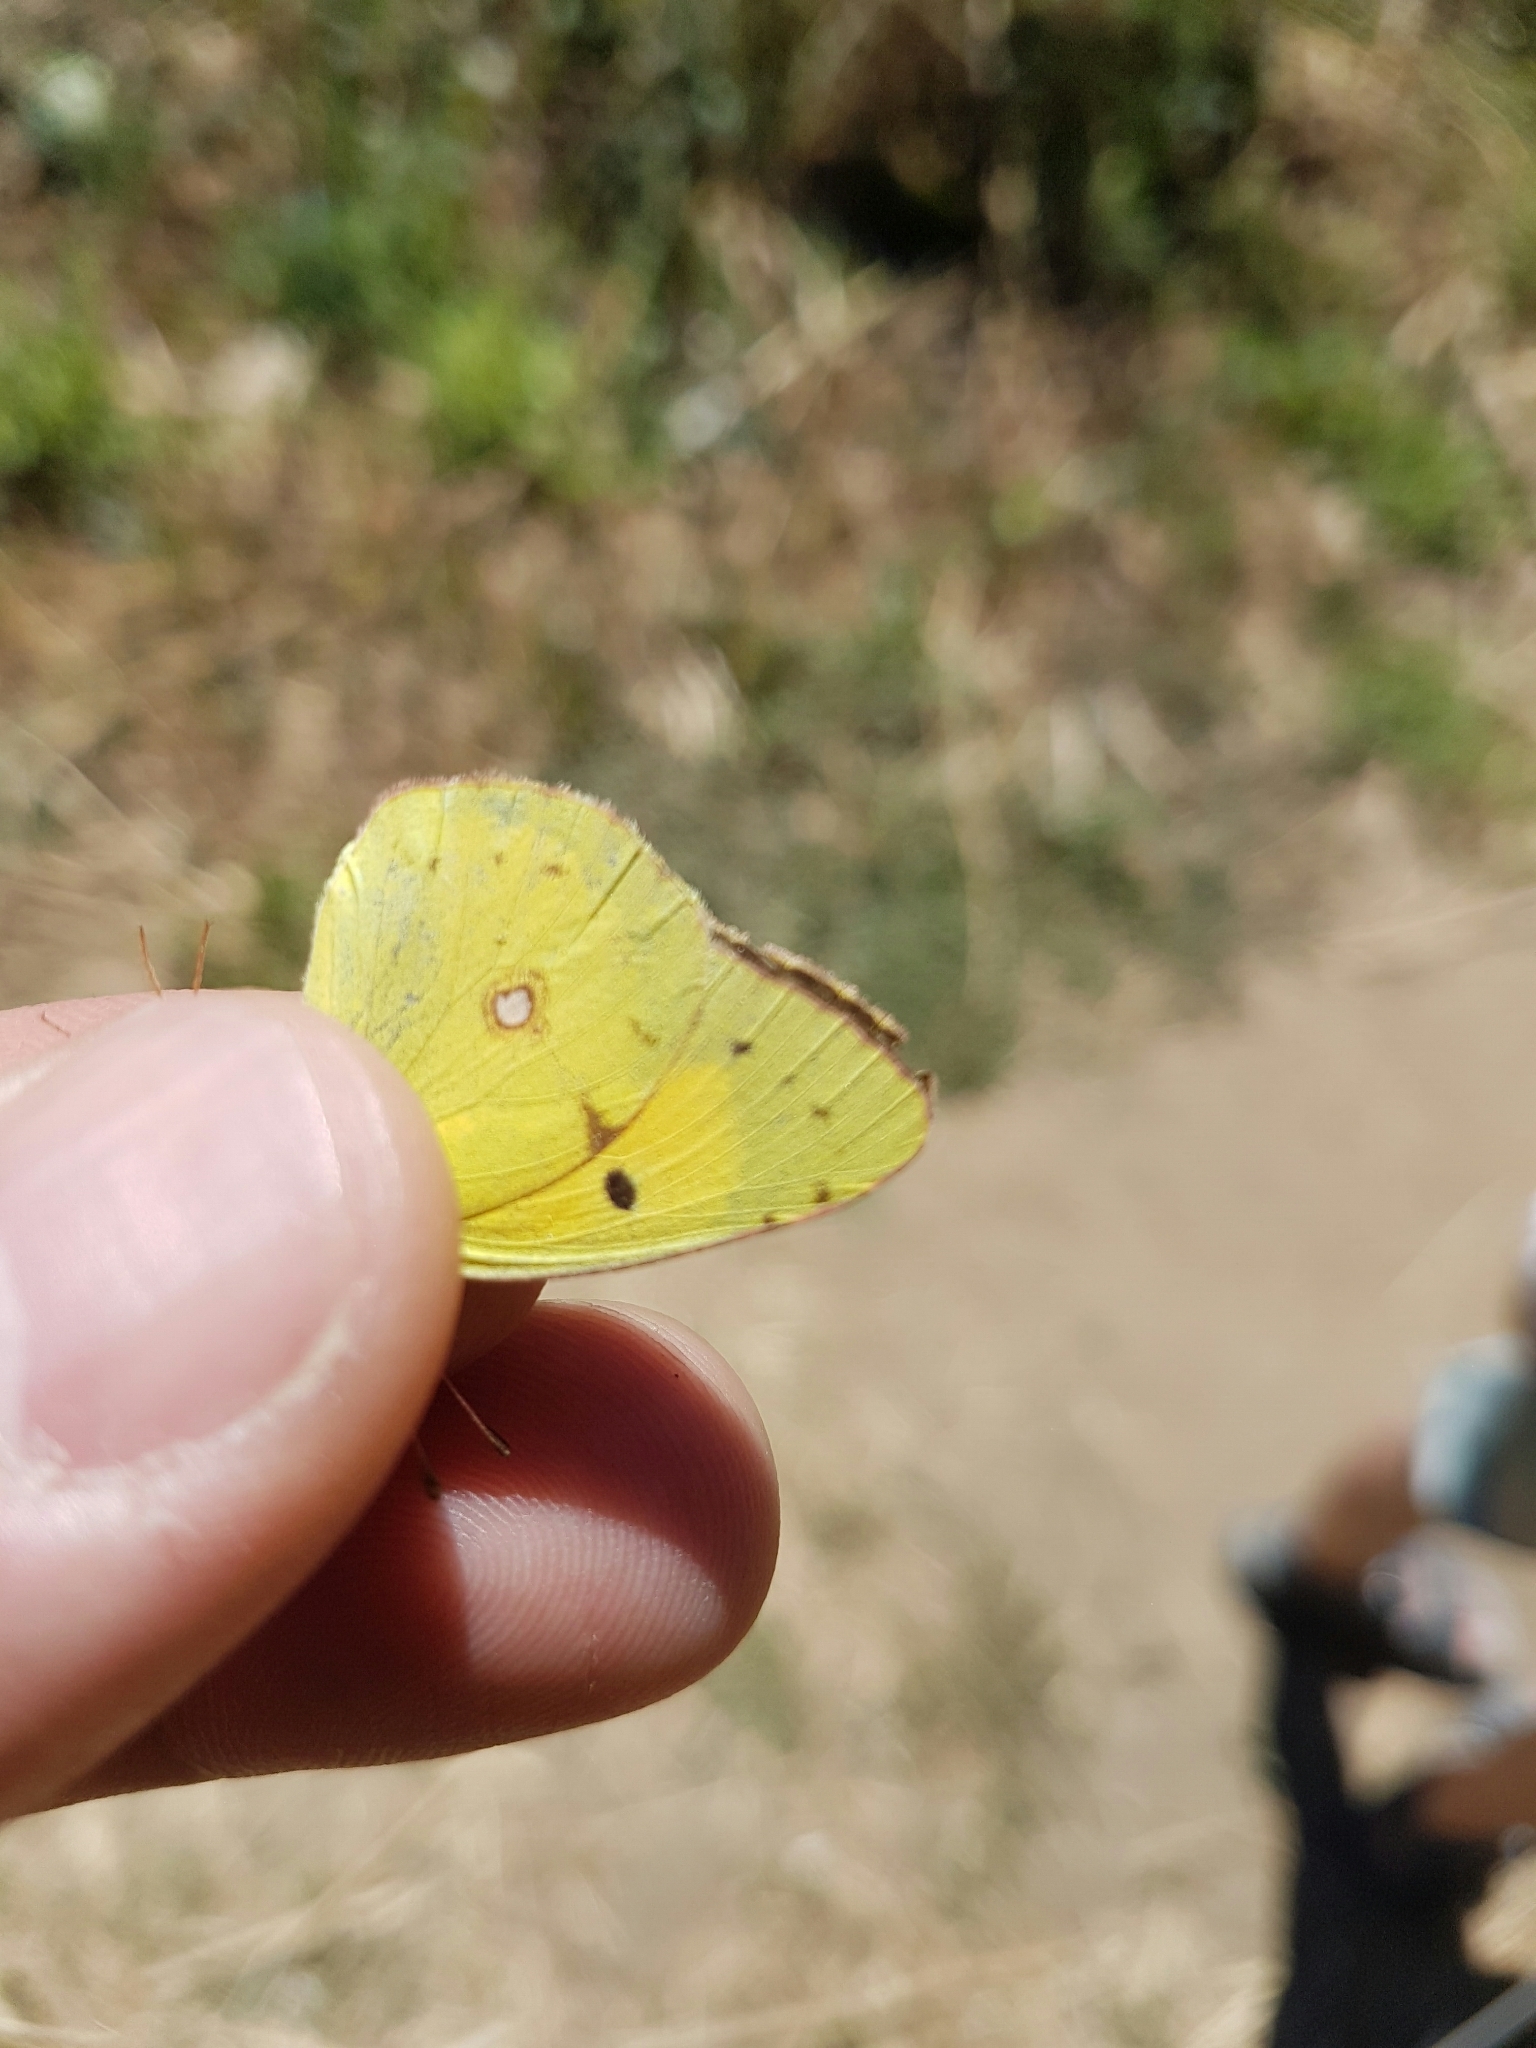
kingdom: Animalia
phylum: Arthropoda
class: Insecta
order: Lepidoptera
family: Pieridae
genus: Colias
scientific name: Colias croceus
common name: Clouded yellow
